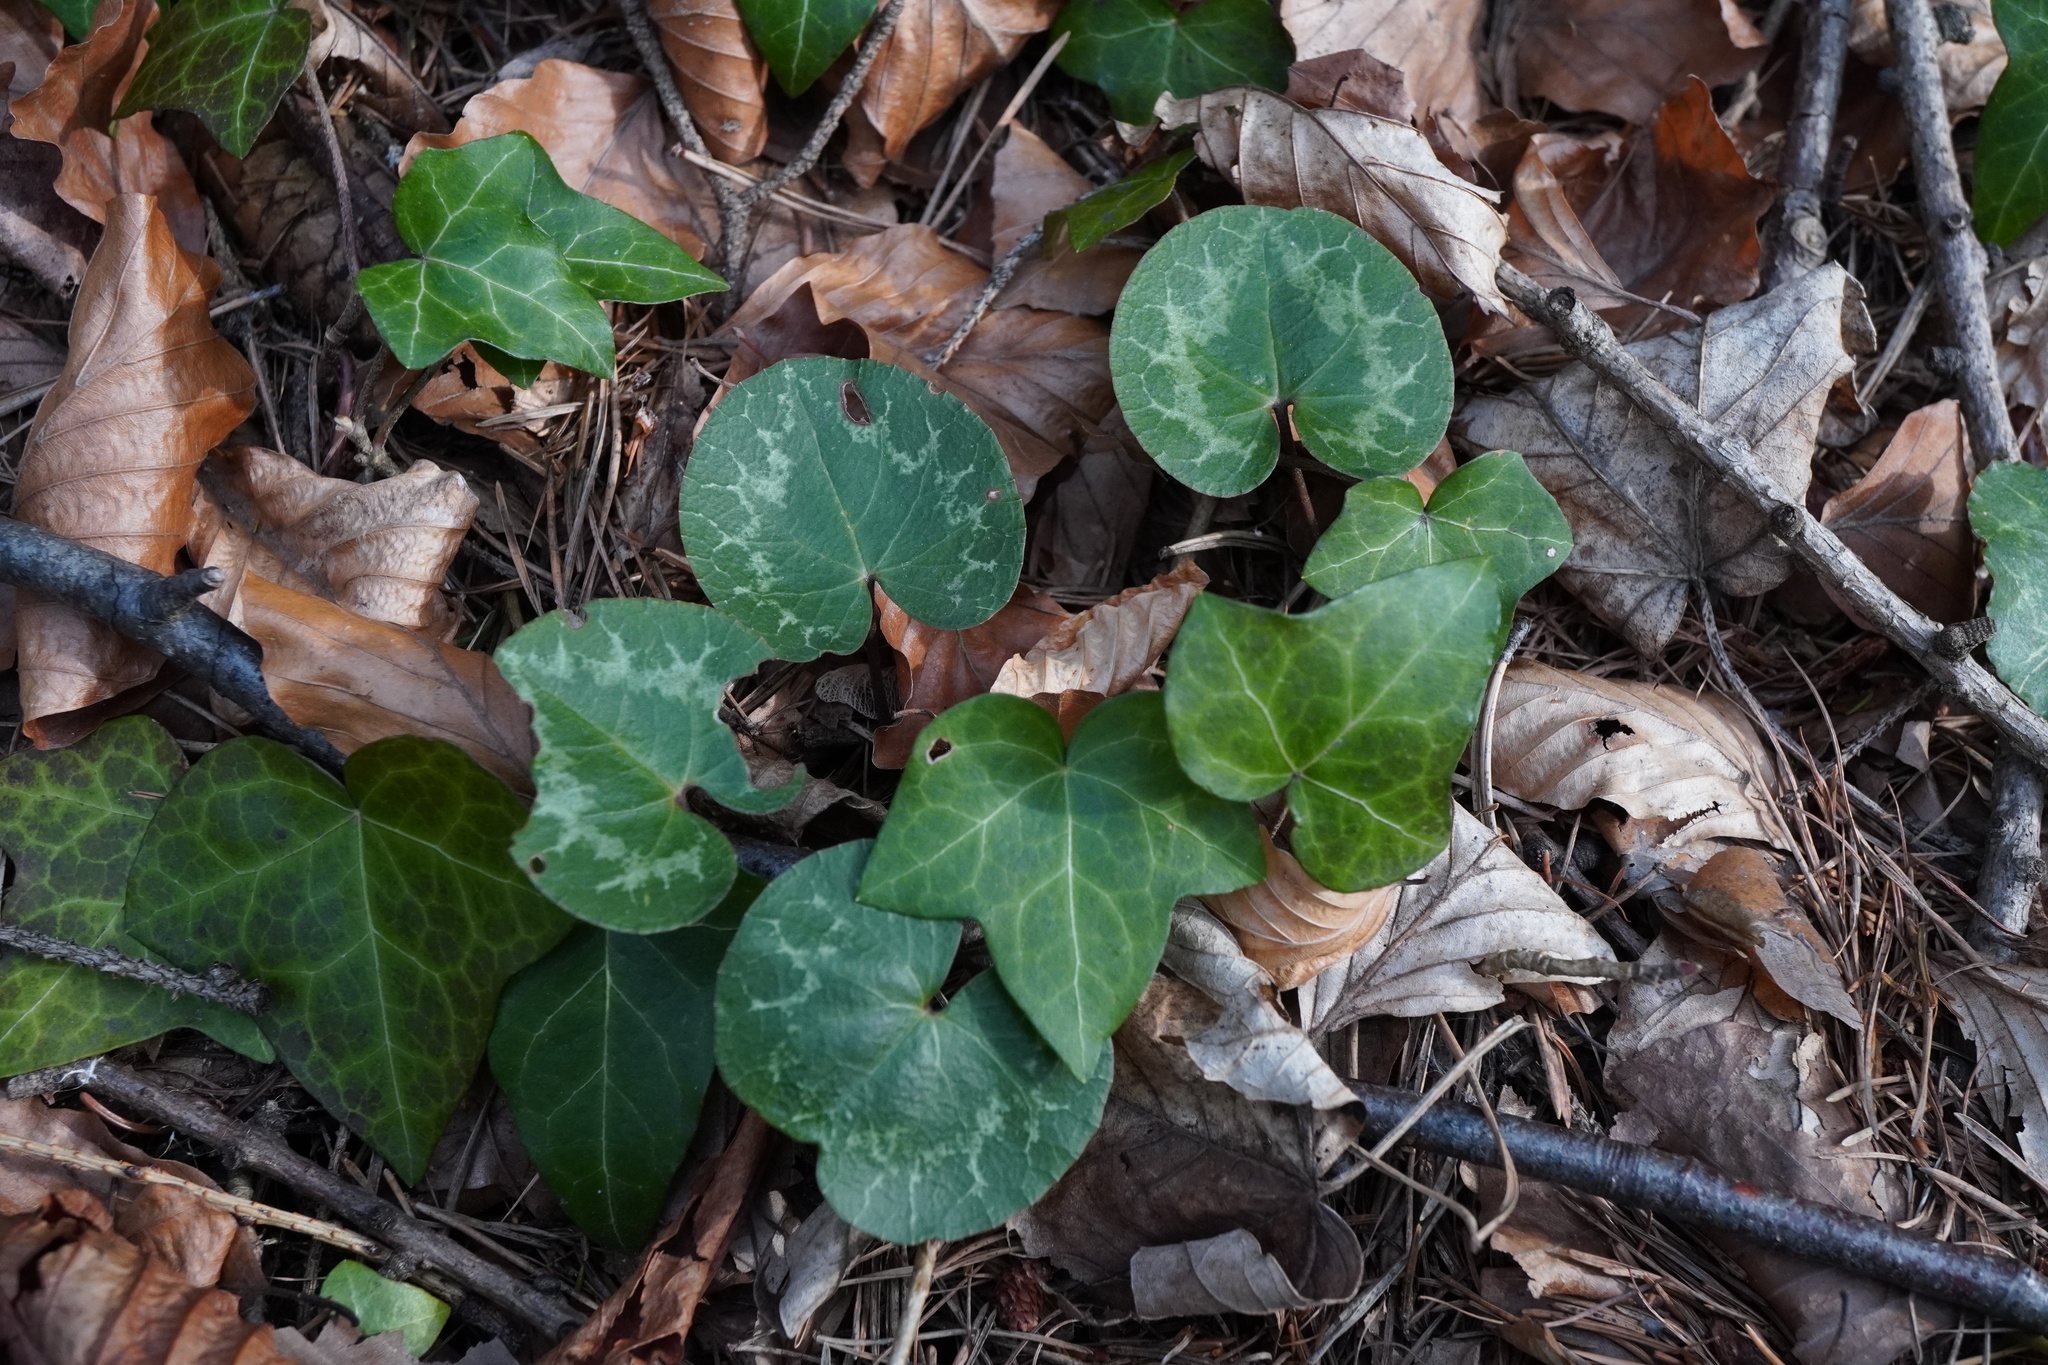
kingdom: Plantae
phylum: Tracheophyta
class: Magnoliopsida
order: Ericales
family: Primulaceae
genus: Cyclamen
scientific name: Cyclamen purpurascens
